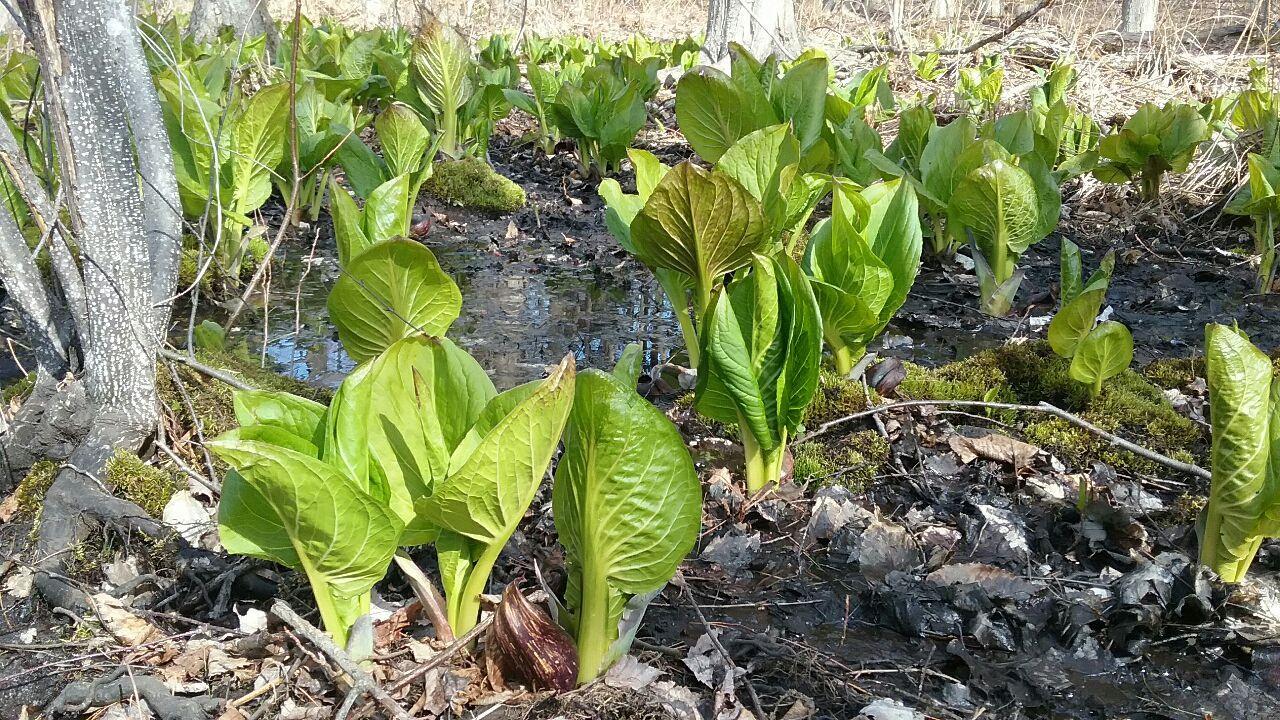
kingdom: Plantae
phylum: Tracheophyta
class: Liliopsida
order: Alismatales
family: Araceae
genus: Symplocarpus
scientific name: Symplocarpus foetidus
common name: Eastern skunk cabbage
